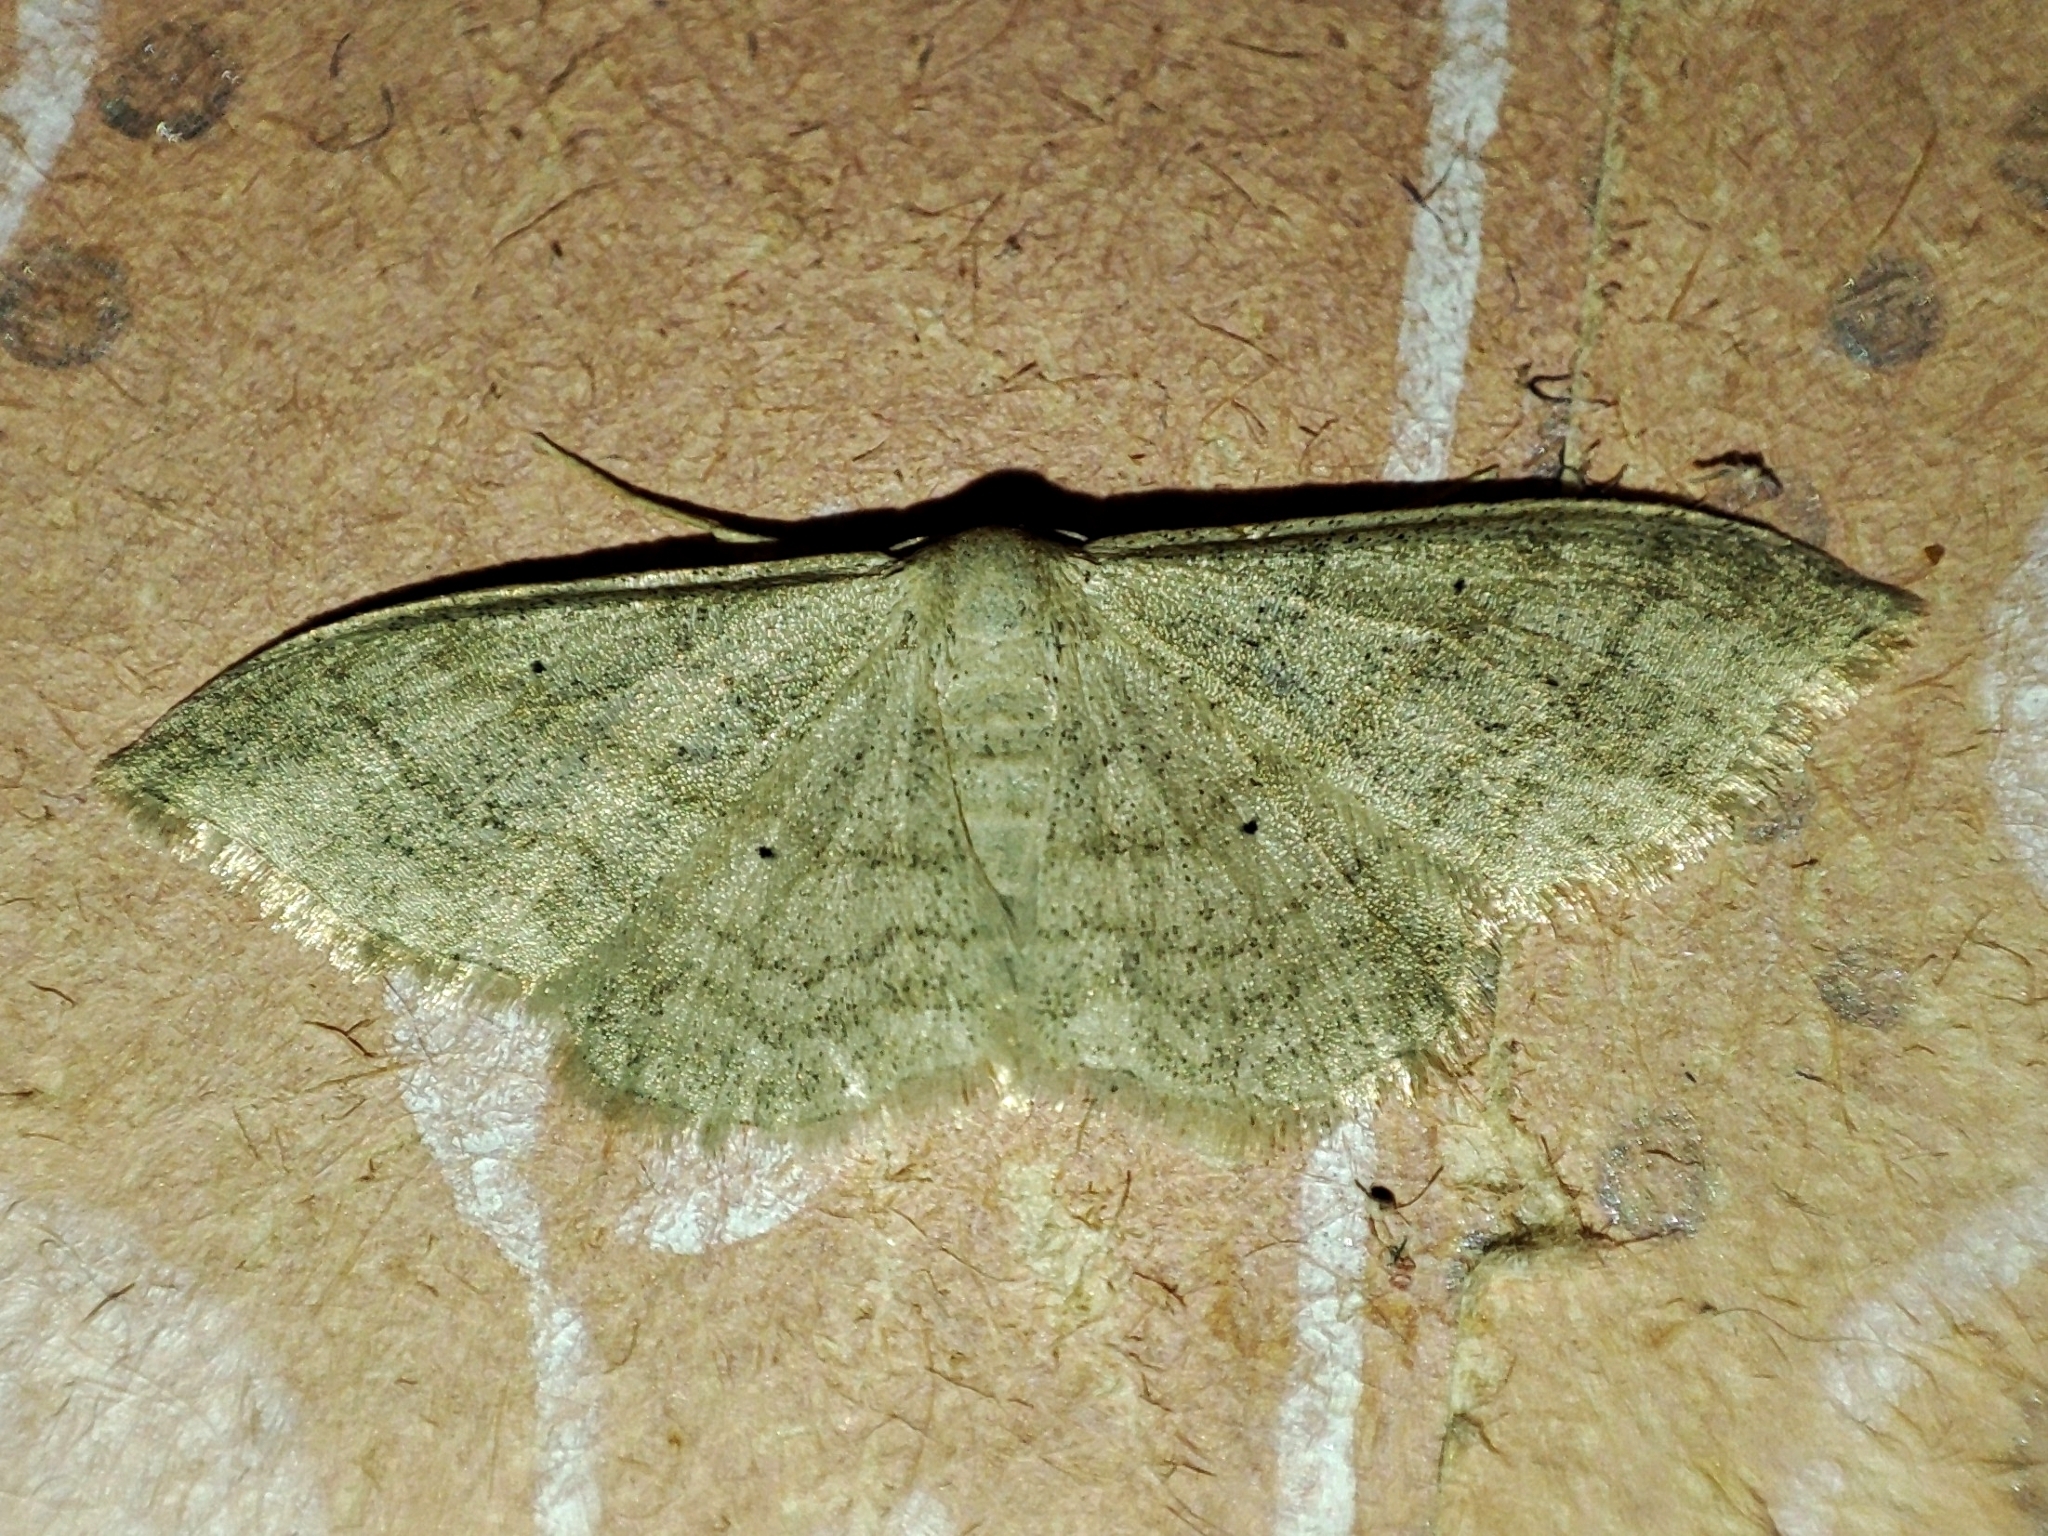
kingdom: Animalia
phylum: Arthropoda
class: Insecta
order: Lepidoptera
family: Geometridae
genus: Idaea
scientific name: Idaea straminata
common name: Plain wave
